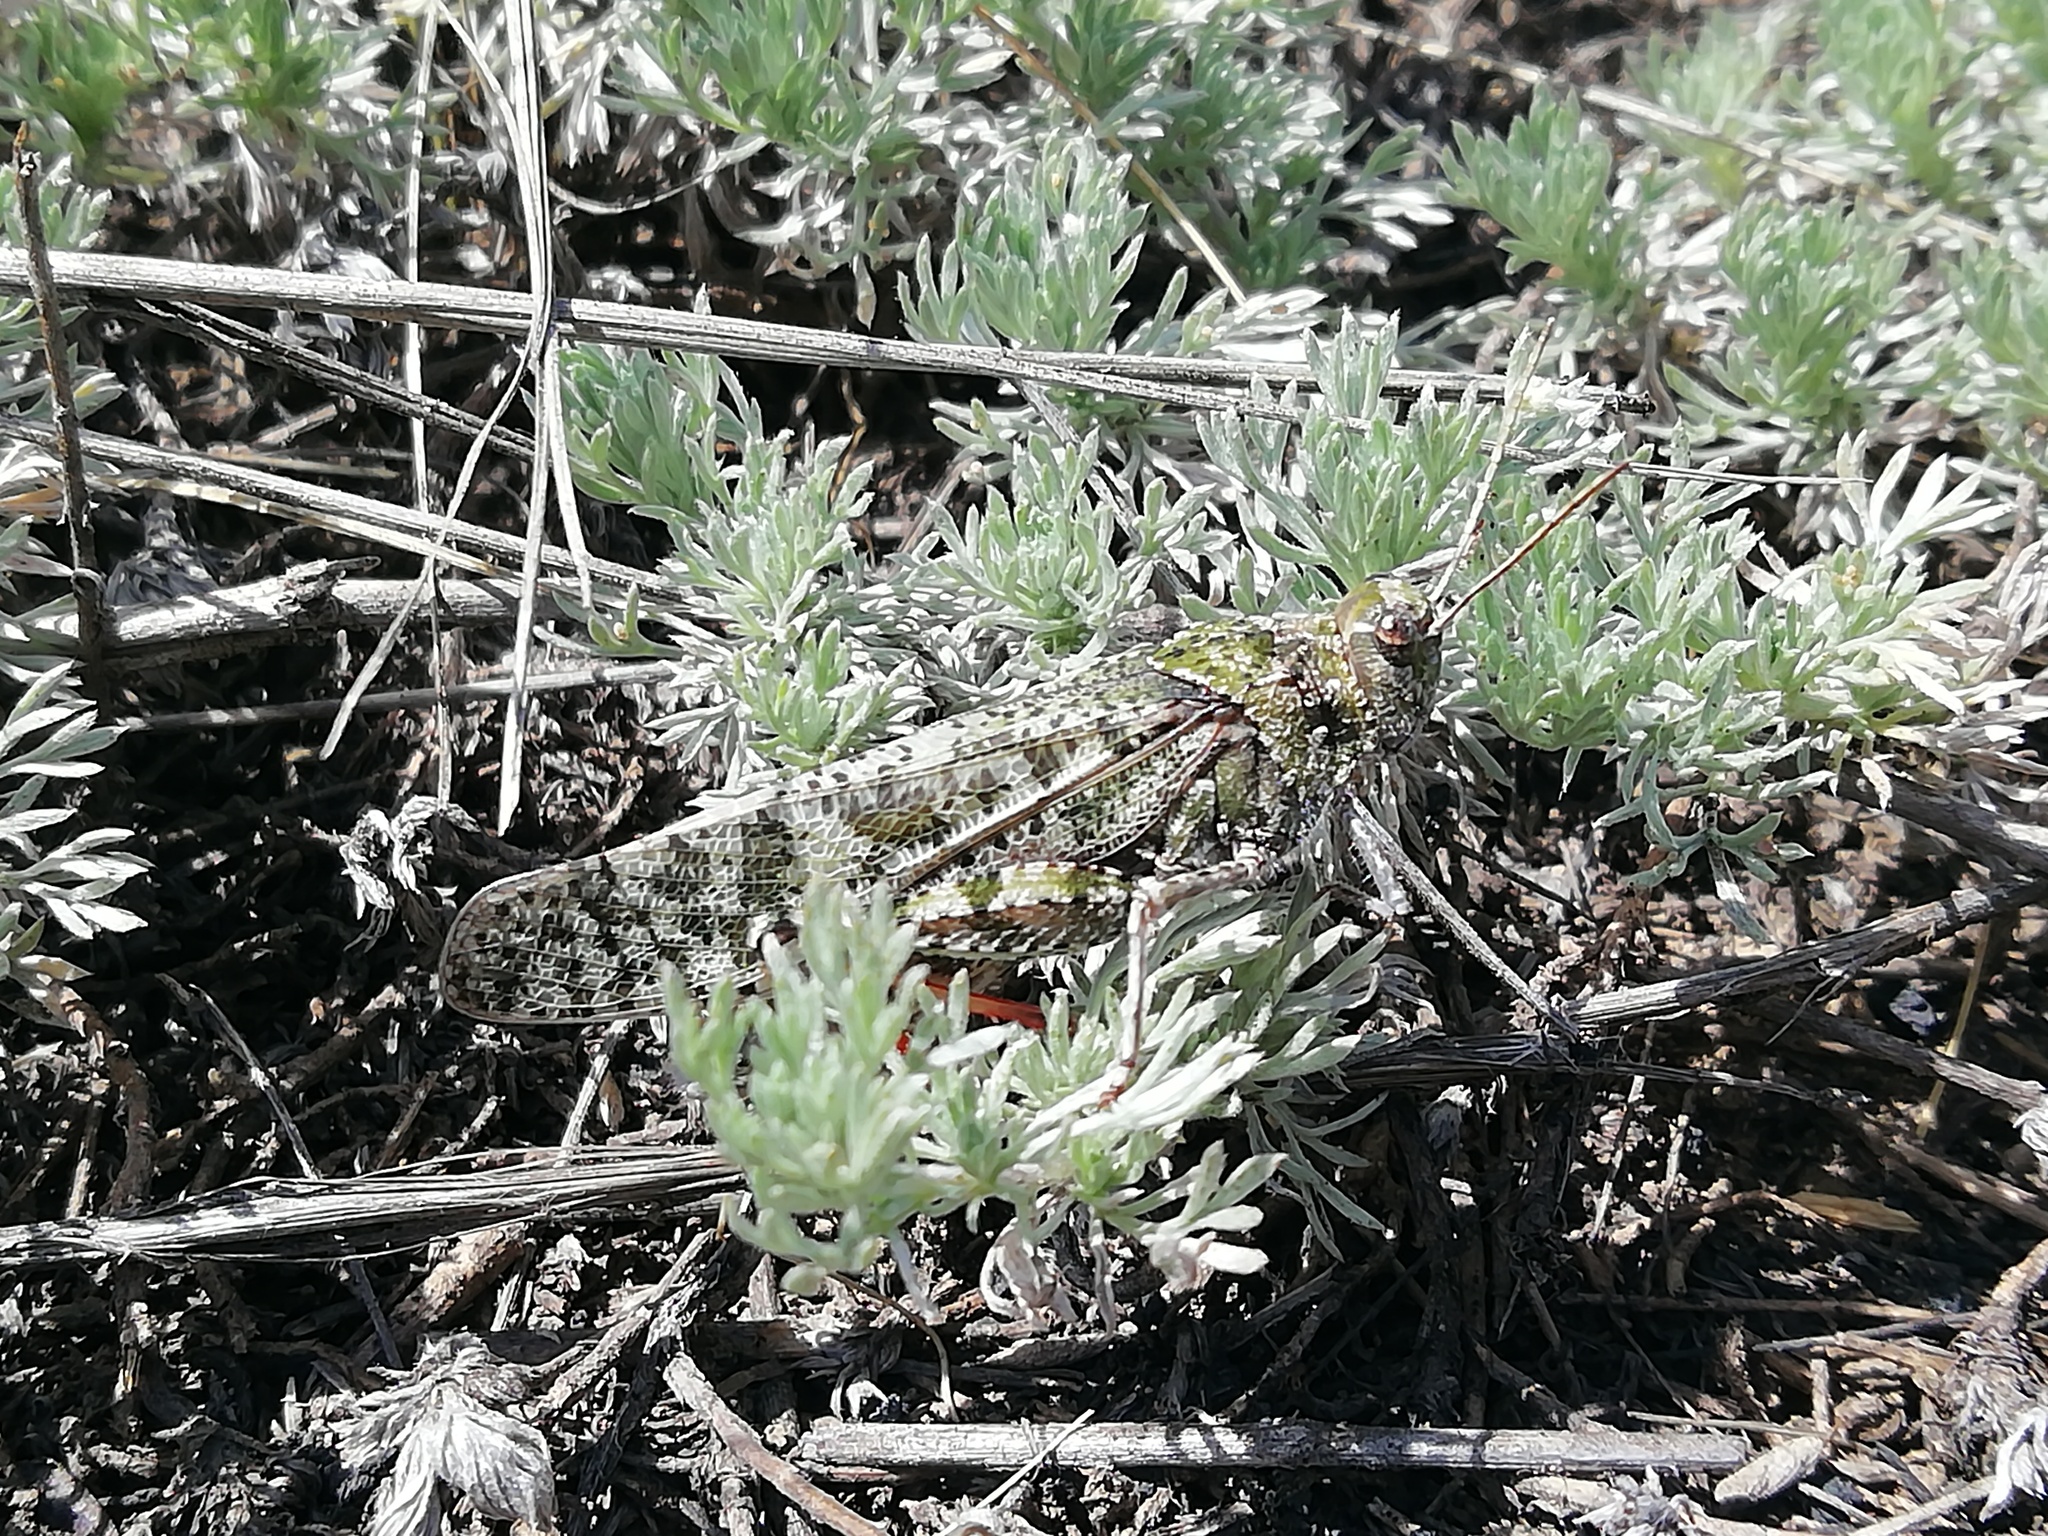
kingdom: Animalia
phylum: Arthropoda
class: Insecta
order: Orthoptera
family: Acrididae
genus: Angaracris
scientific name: Angaracris barabensis
